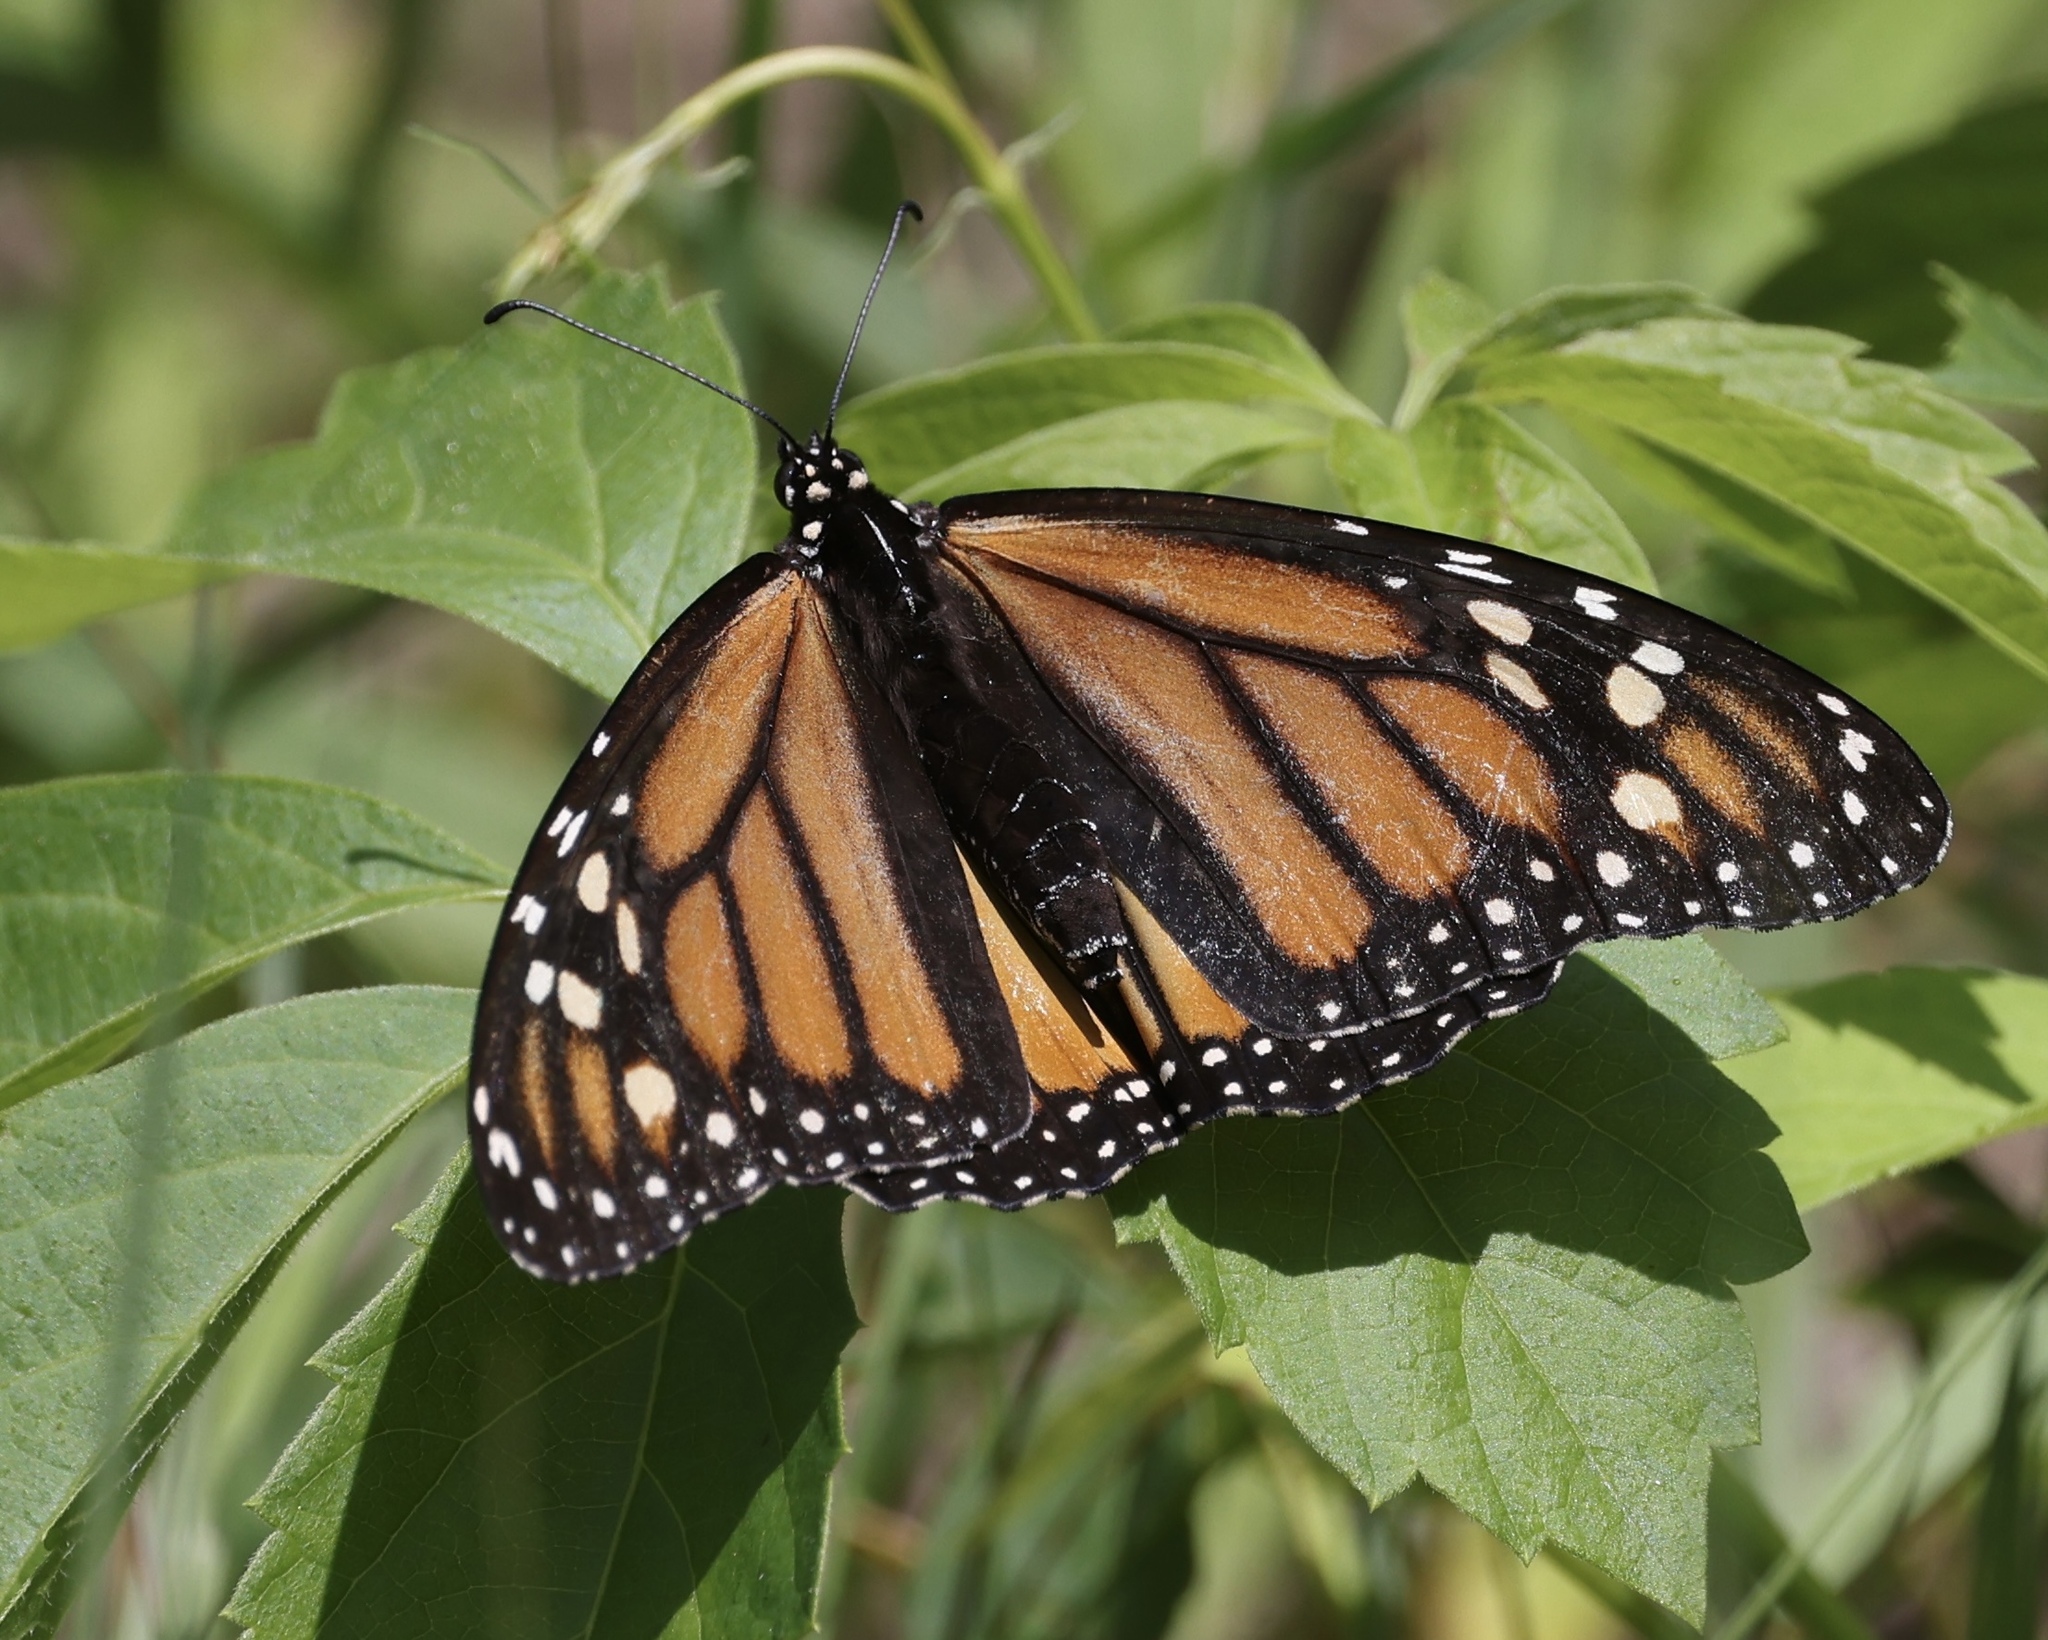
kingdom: Animalia
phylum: Arthropoda
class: Insecta
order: Lepidoptera
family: Nymphalidae
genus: Danaus
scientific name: Danaus plexippus
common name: Monarch
